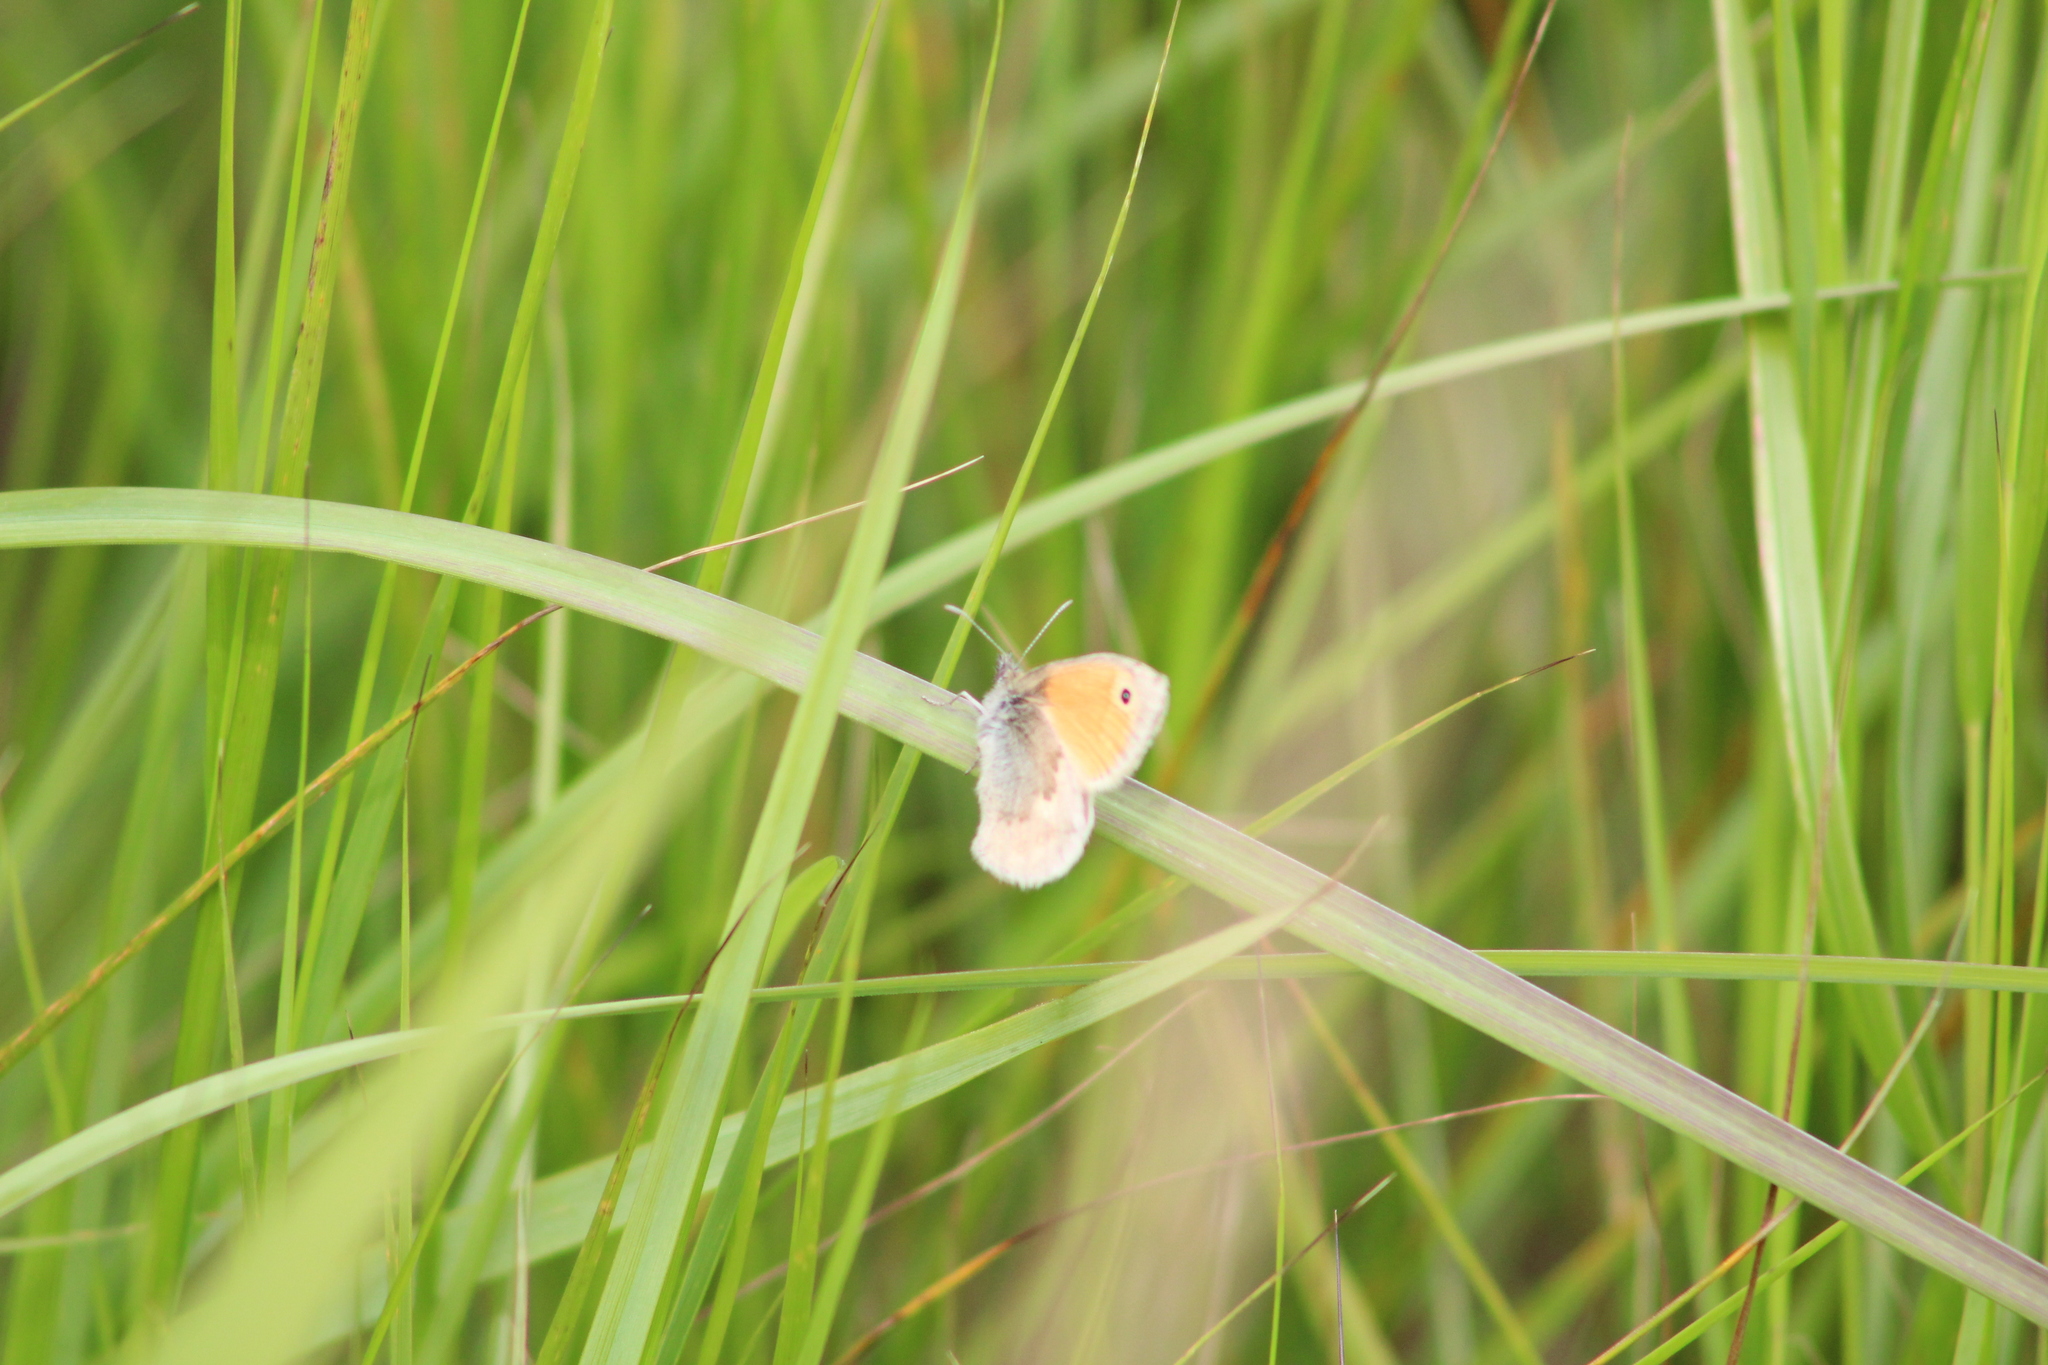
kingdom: Animalia
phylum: Arthropoda
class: Insecta
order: Lepidoptera
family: Nymphalidae
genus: Coenonympha
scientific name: Coenonympha pamphilus
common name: Small heath
